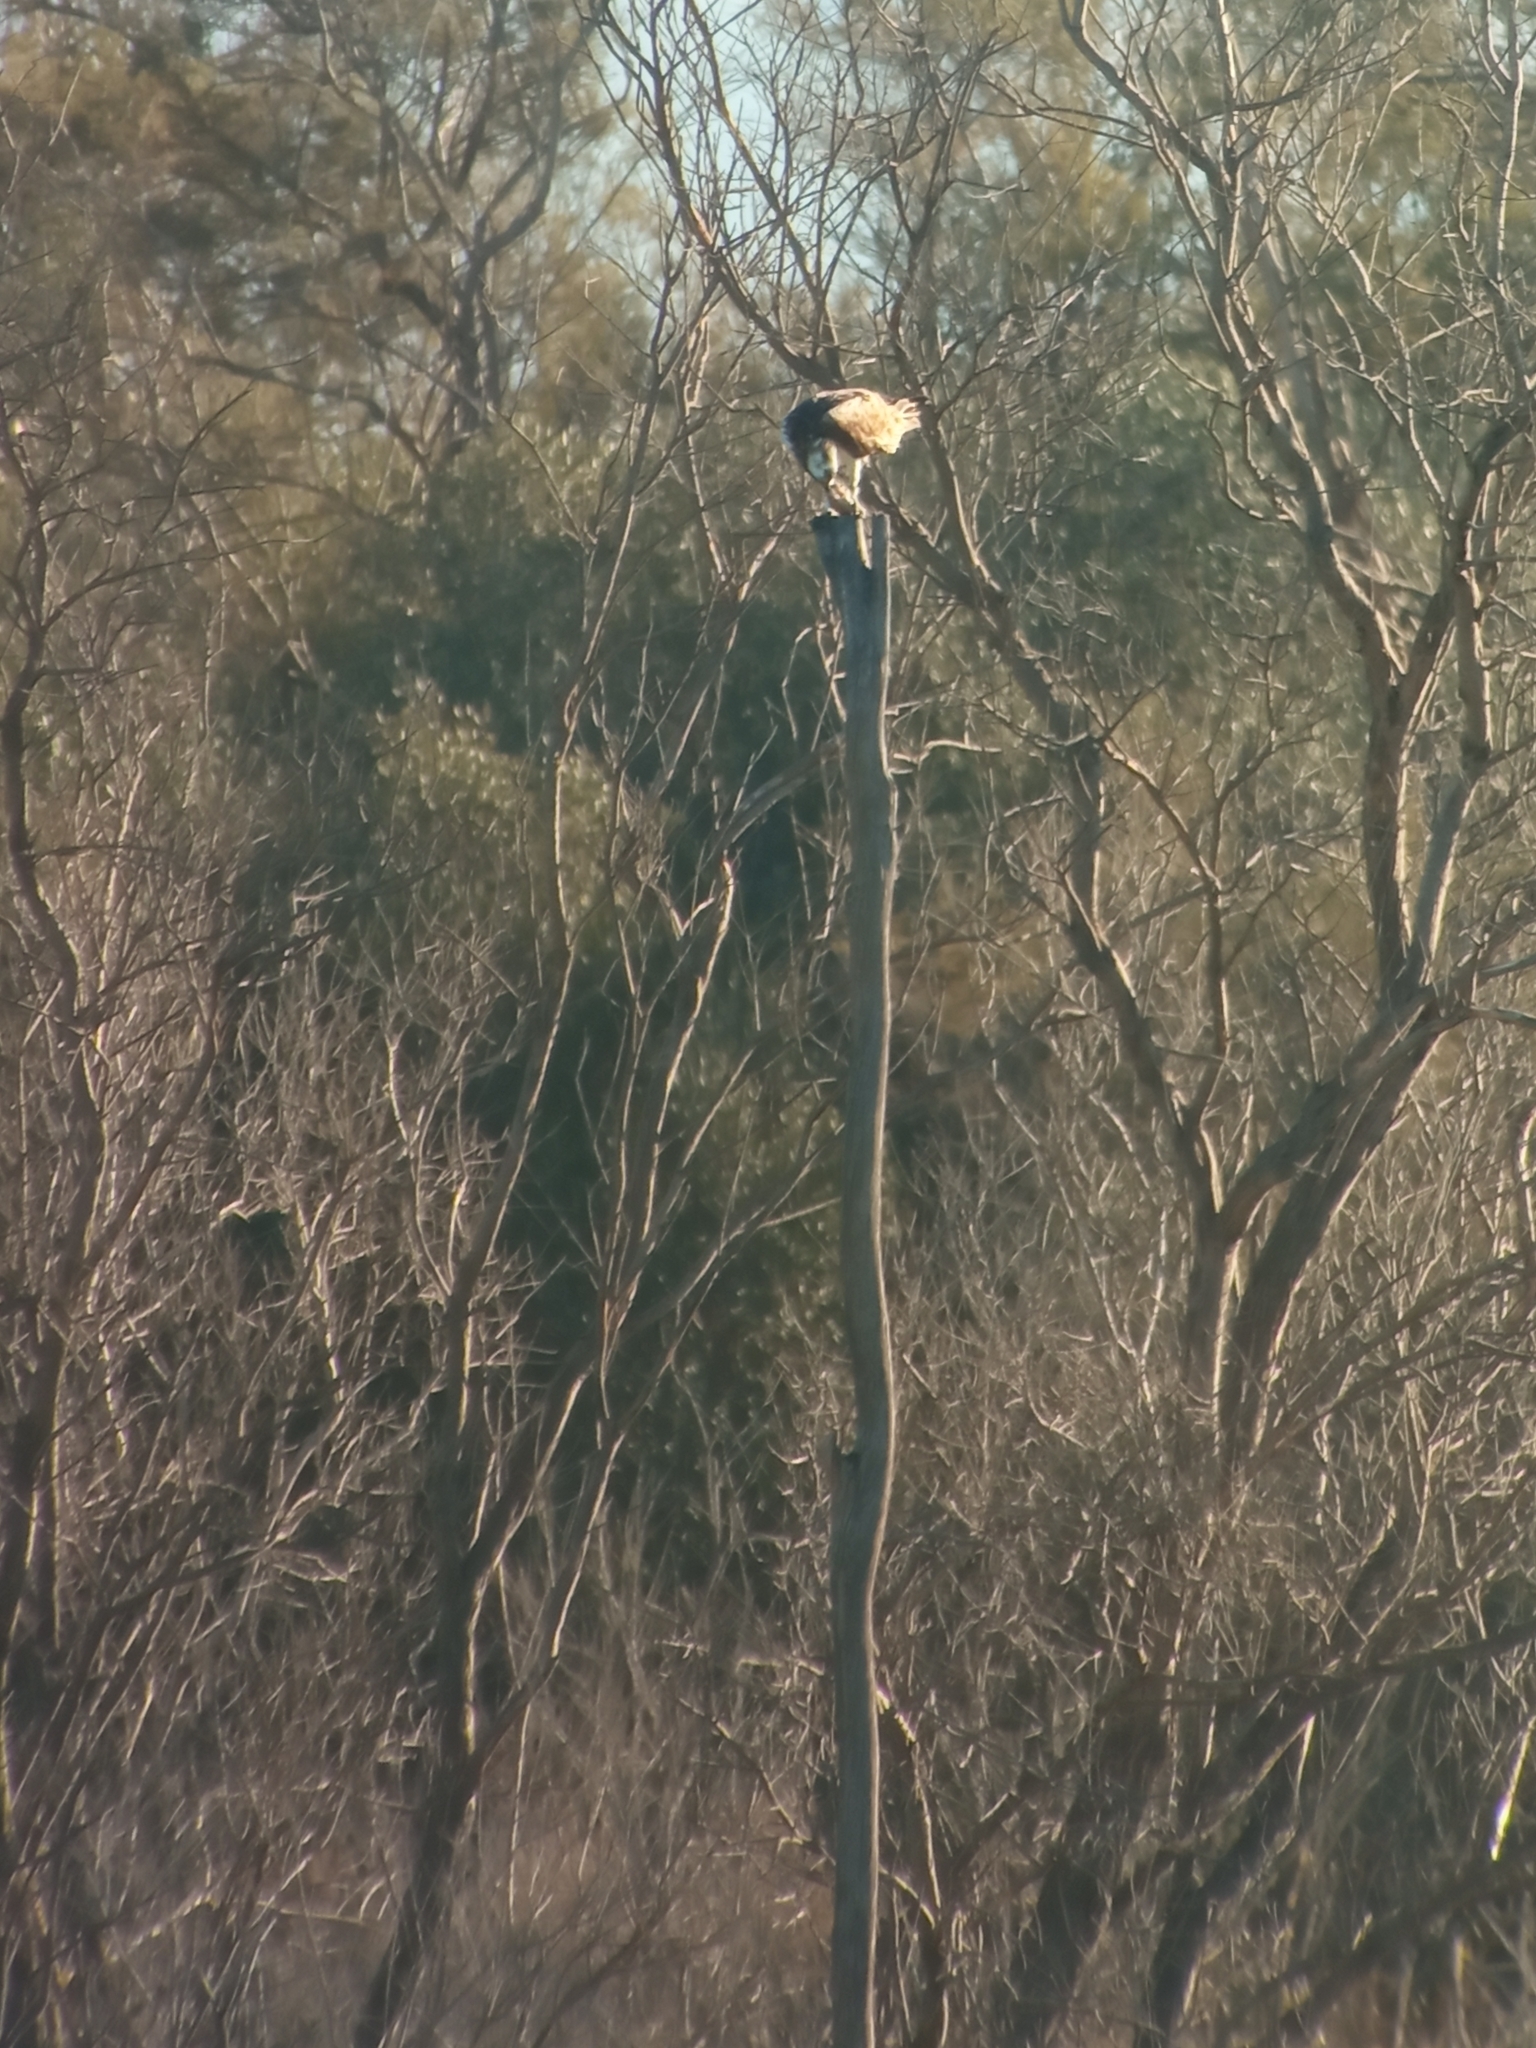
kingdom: Animalia
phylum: Chordata
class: Aves
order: Accipitriformes
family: Pandionidae
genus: Pandion
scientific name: Pandion haliaetus
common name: Osprey
